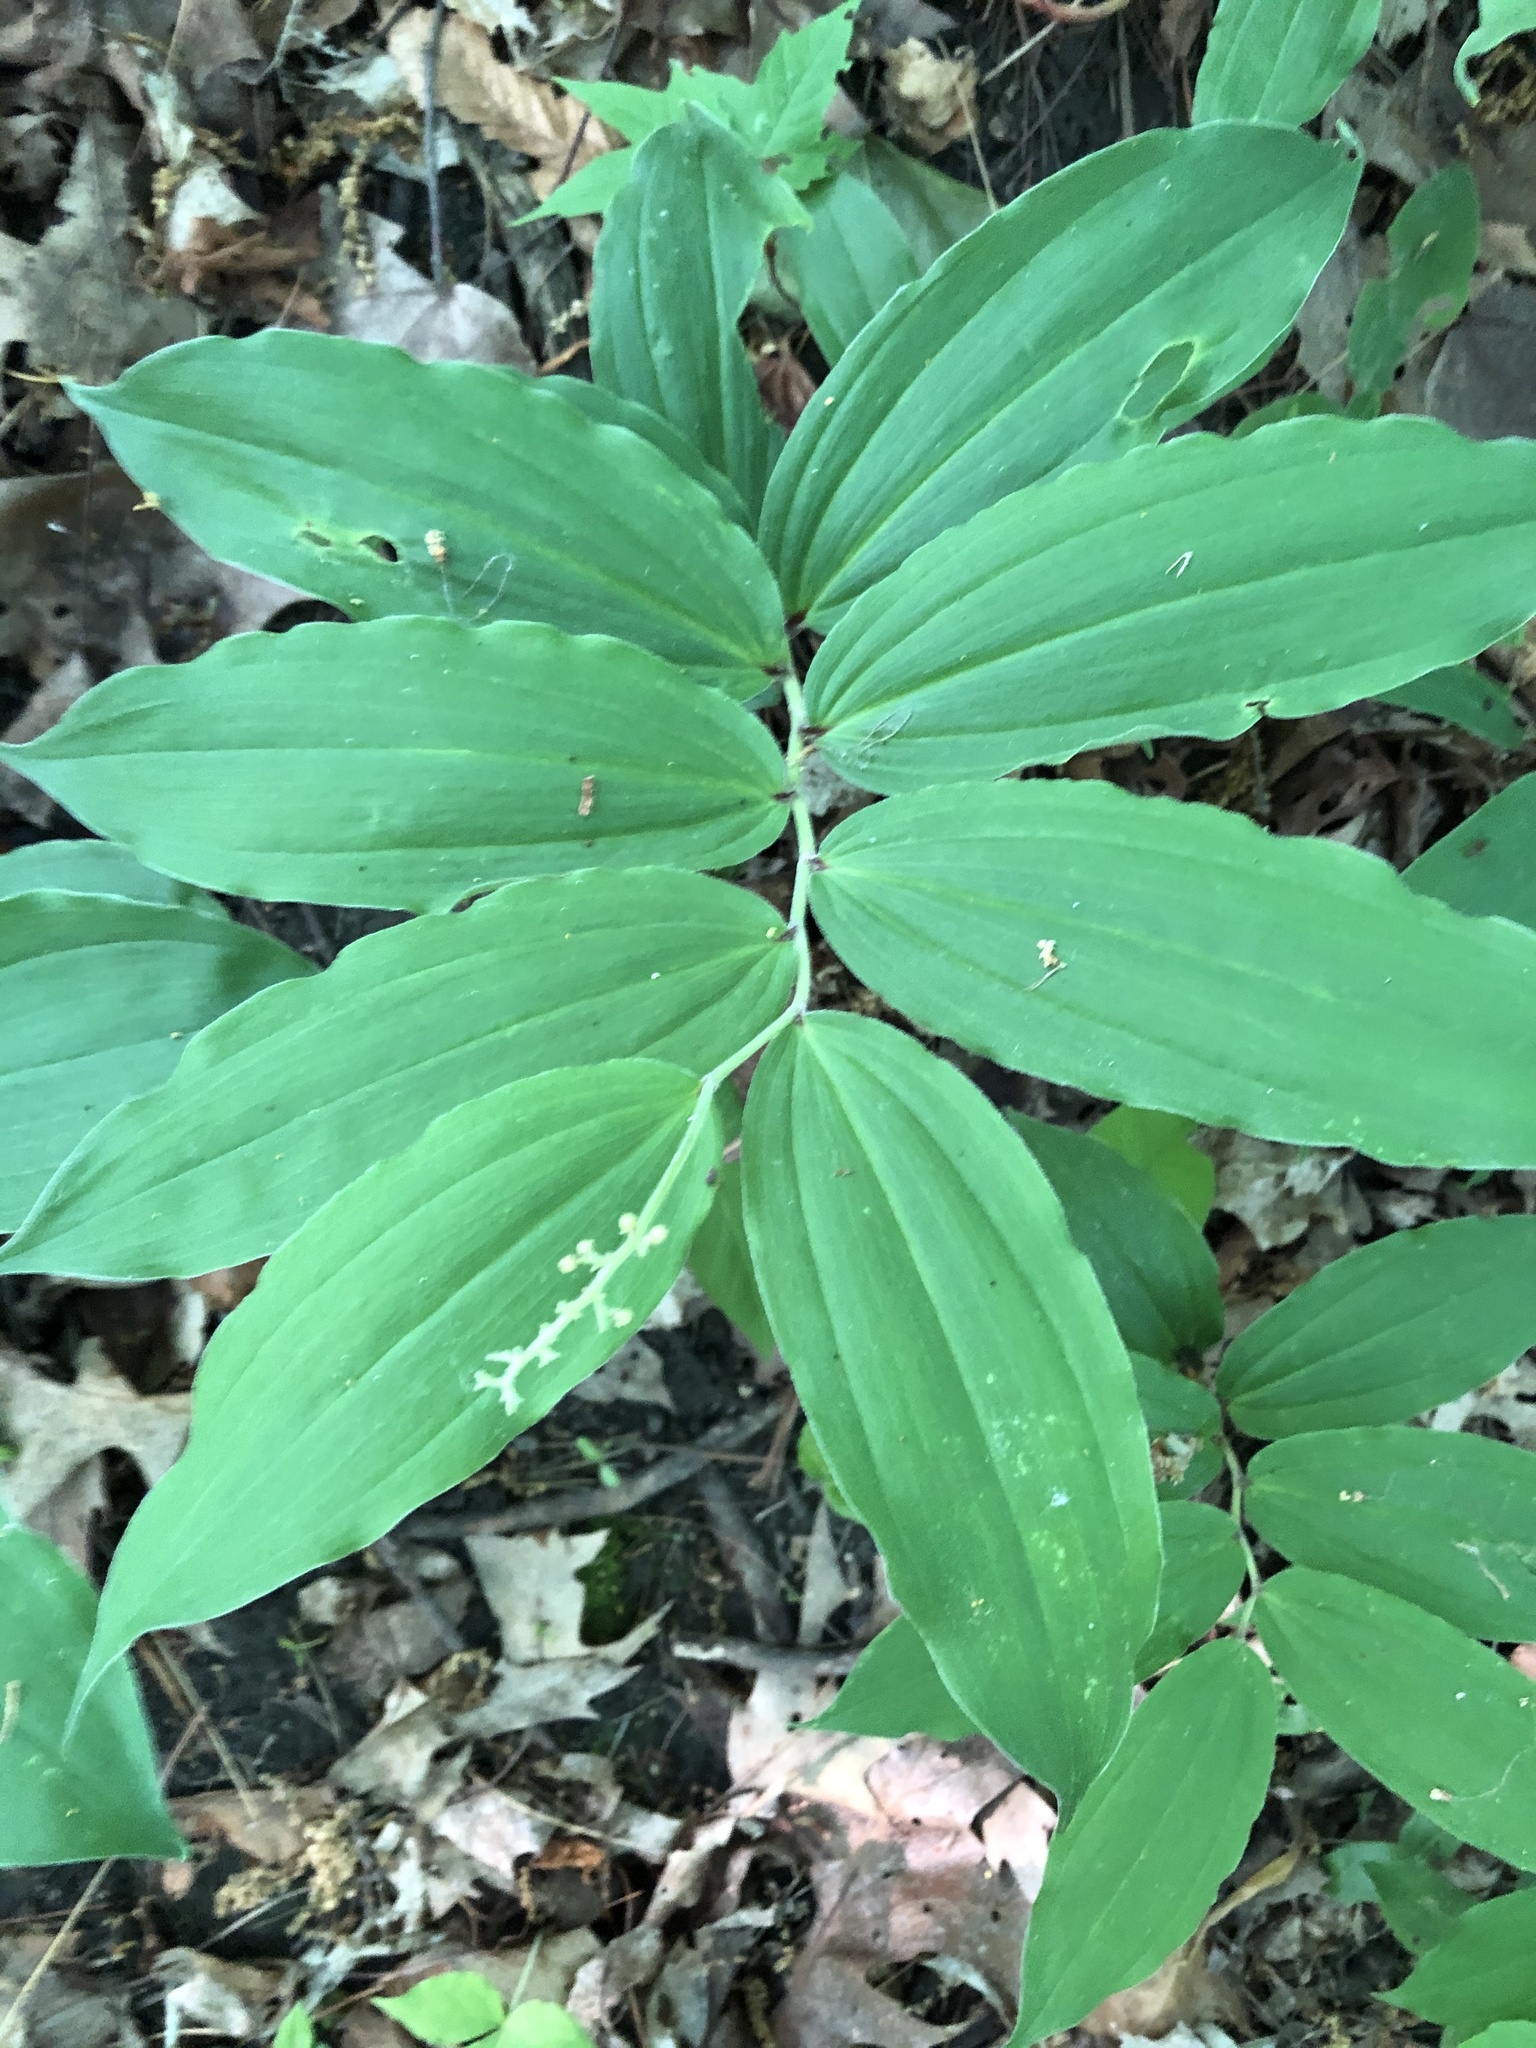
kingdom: Plantae
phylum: Tracheophyta
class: Liliopsida
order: Asparagales
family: Asparagaceae
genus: Maianthemum
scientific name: Maianthemum racemosum
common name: False spikenard
